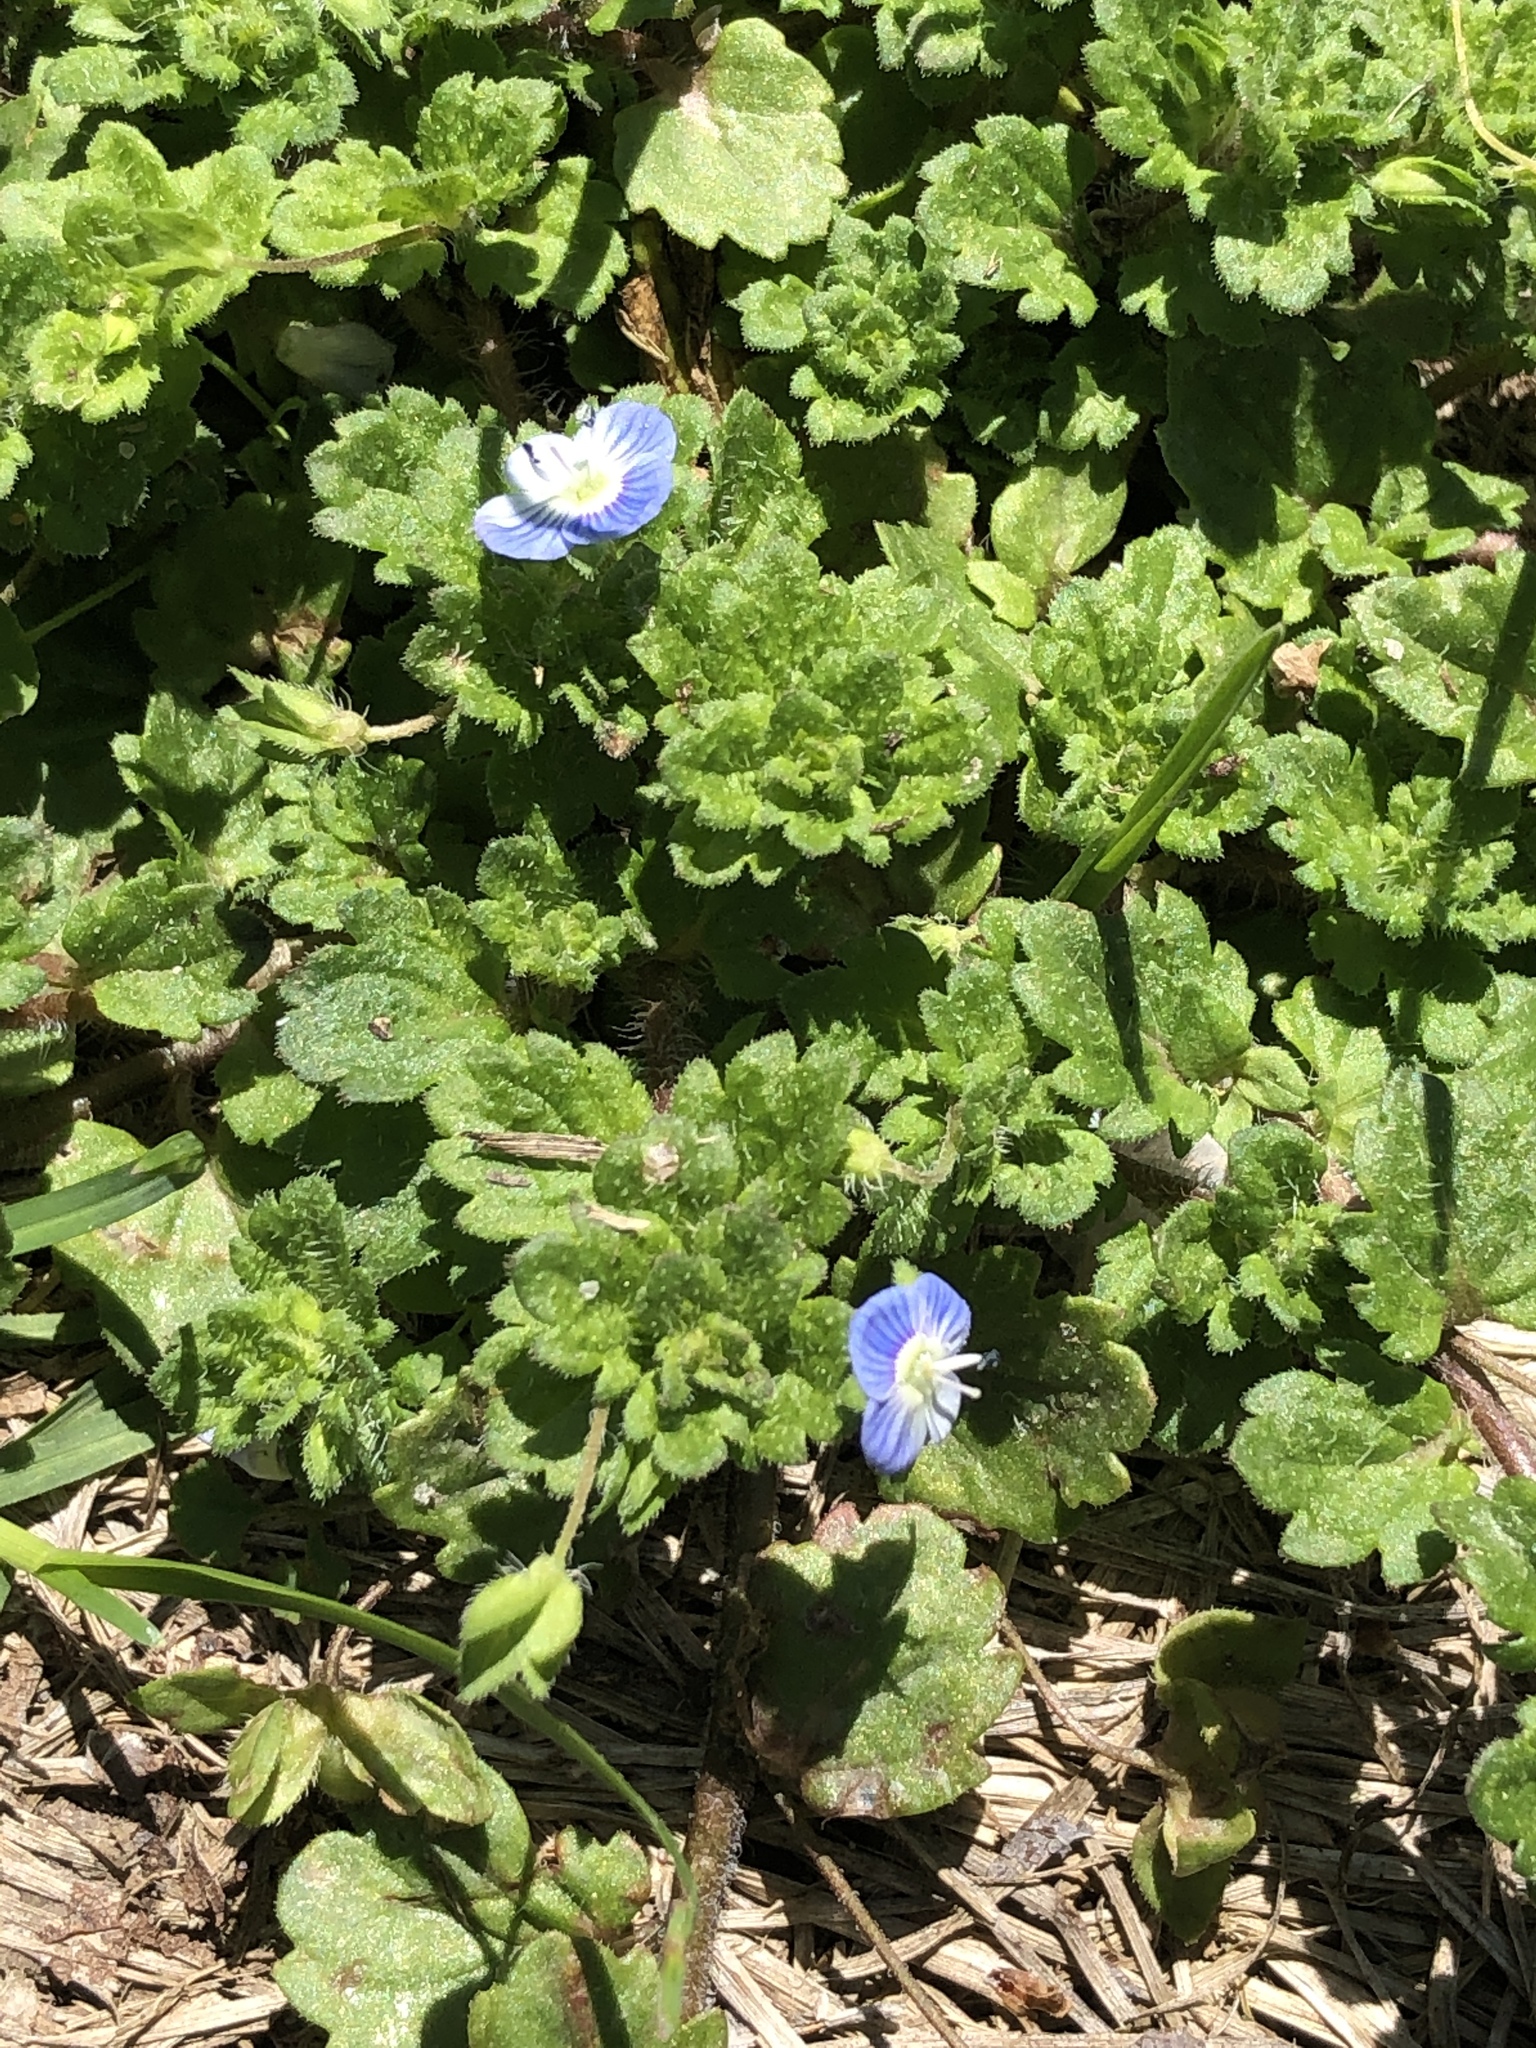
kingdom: Plantae
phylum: Tracheophyta
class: Magnoliopsida
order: Lamiales
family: Plantaginaceae
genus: Veronica
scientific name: Veronica persica
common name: Common field-speedwell
